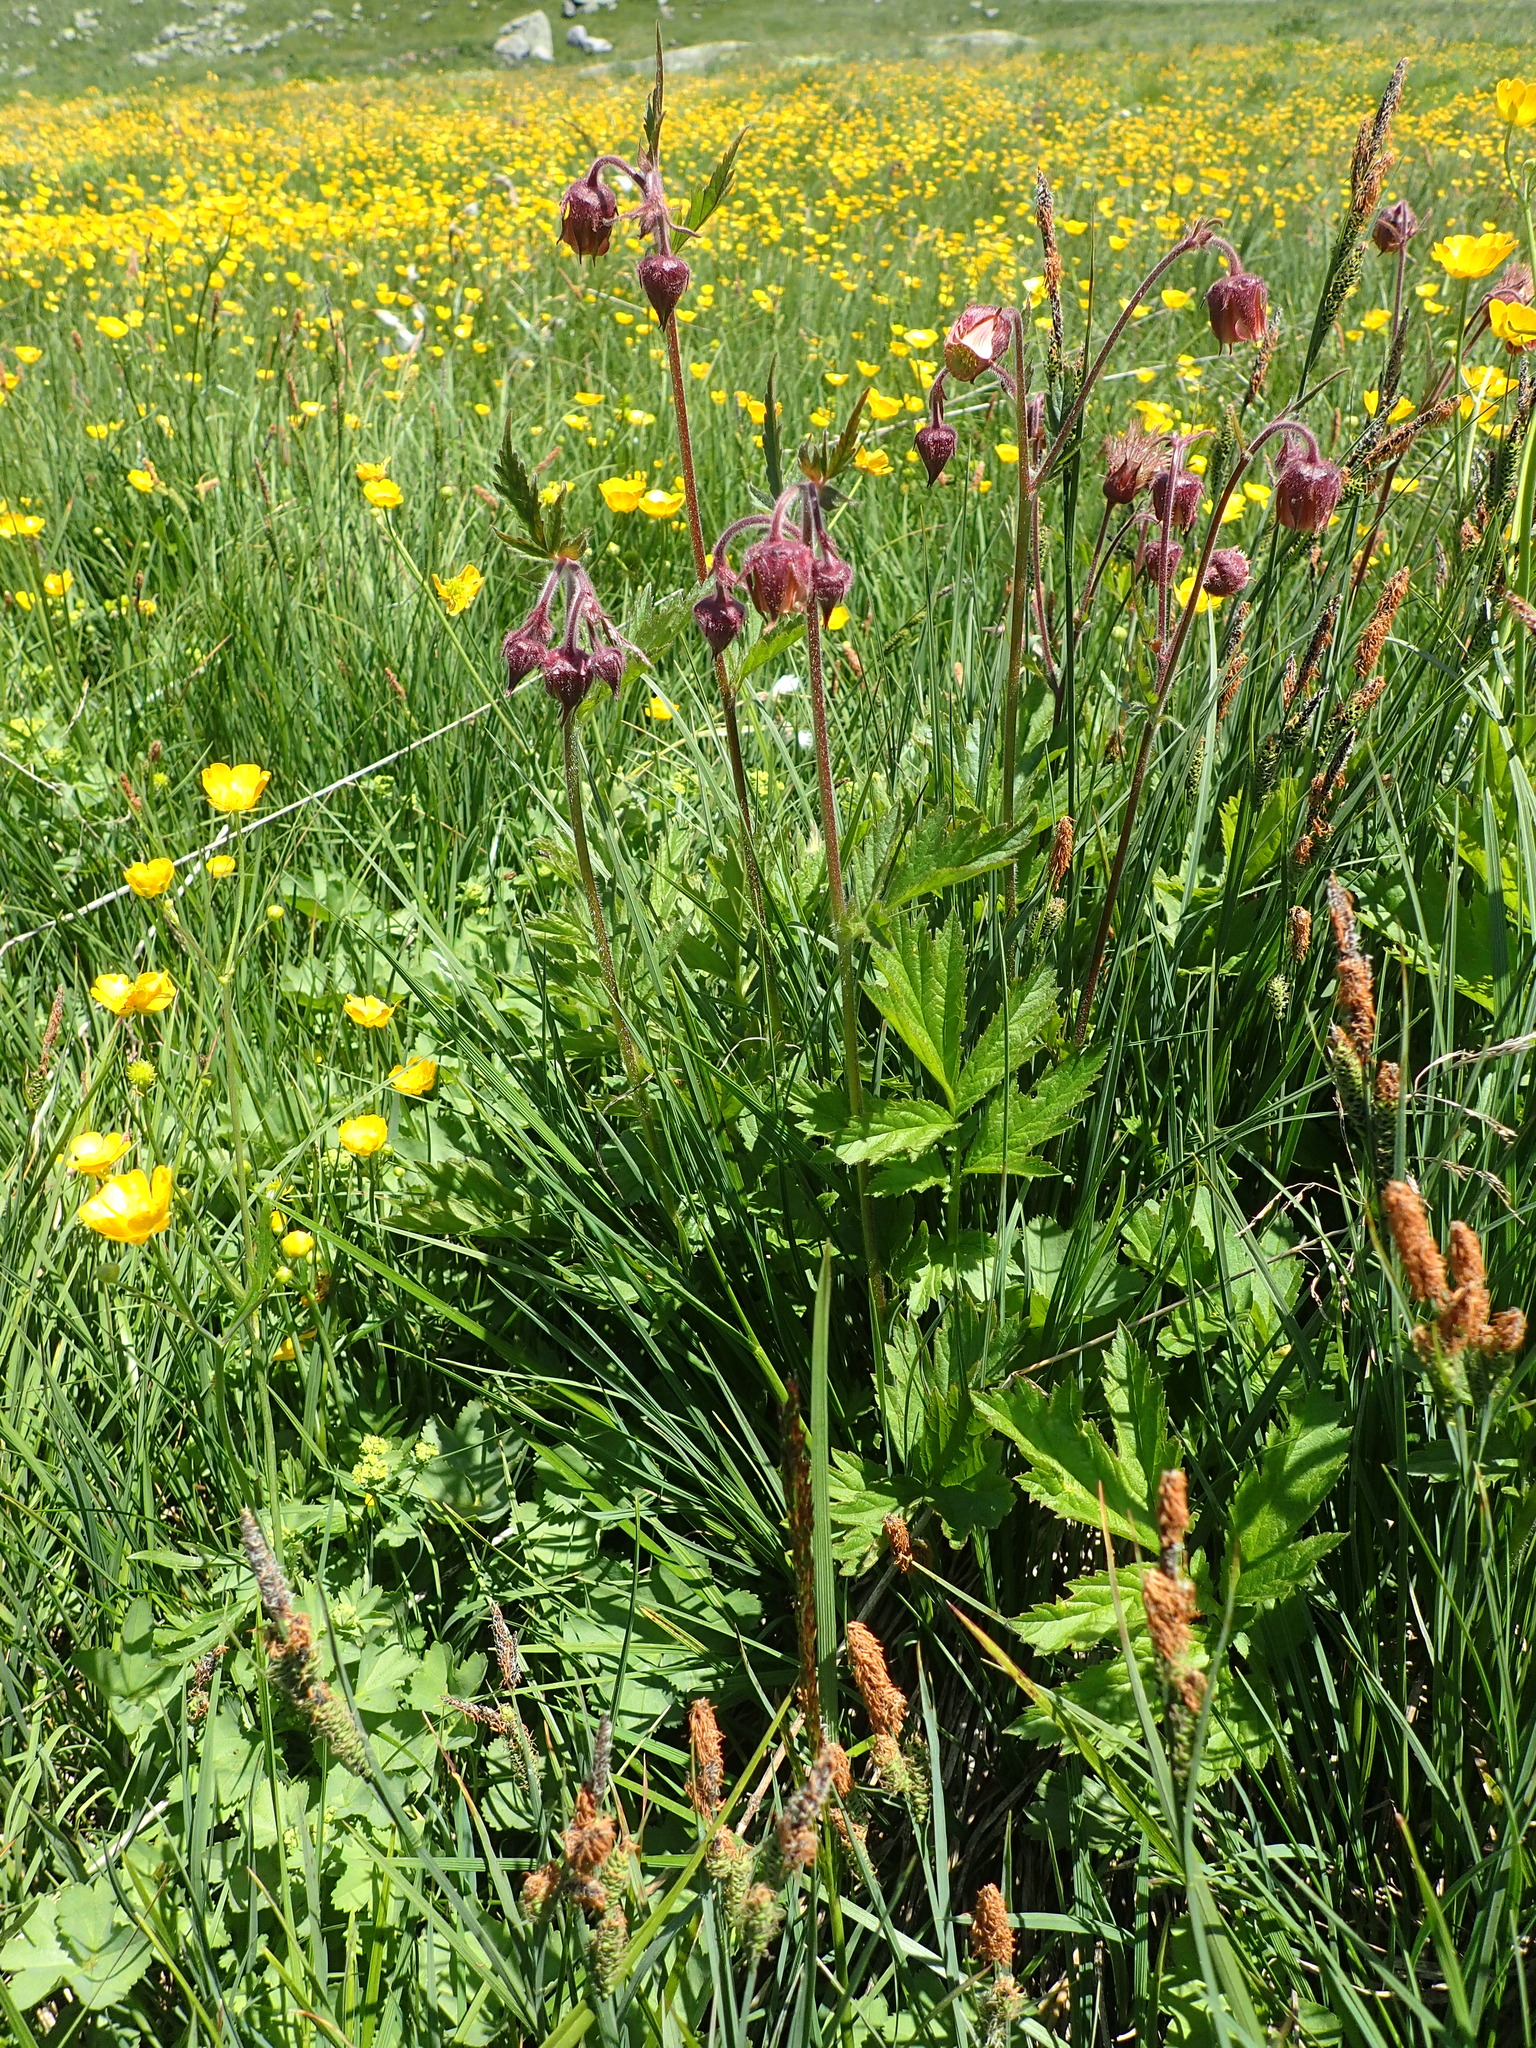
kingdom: Plantae
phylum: Tracheophyta
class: Magnoliopsida
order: Rosales
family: Rosaceae
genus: Geum
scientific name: Geum rivale
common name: Water avens
